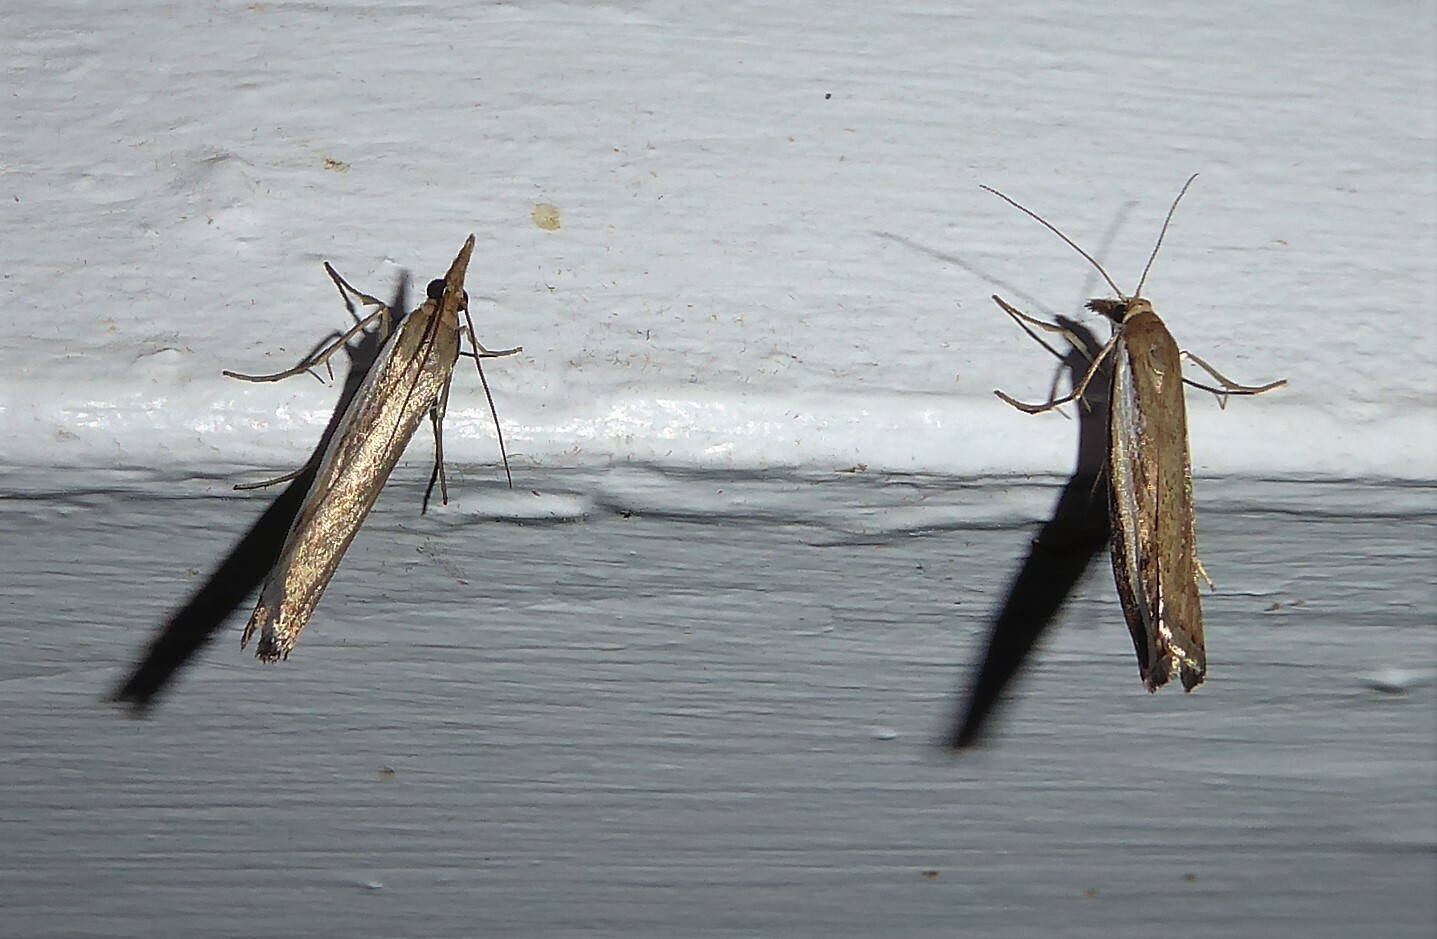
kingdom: Animalia
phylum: Arthropoda
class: Insecta
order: Lepidoptera
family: Crambidae
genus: Orocrambus
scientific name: Orocrambus flexuosellus
